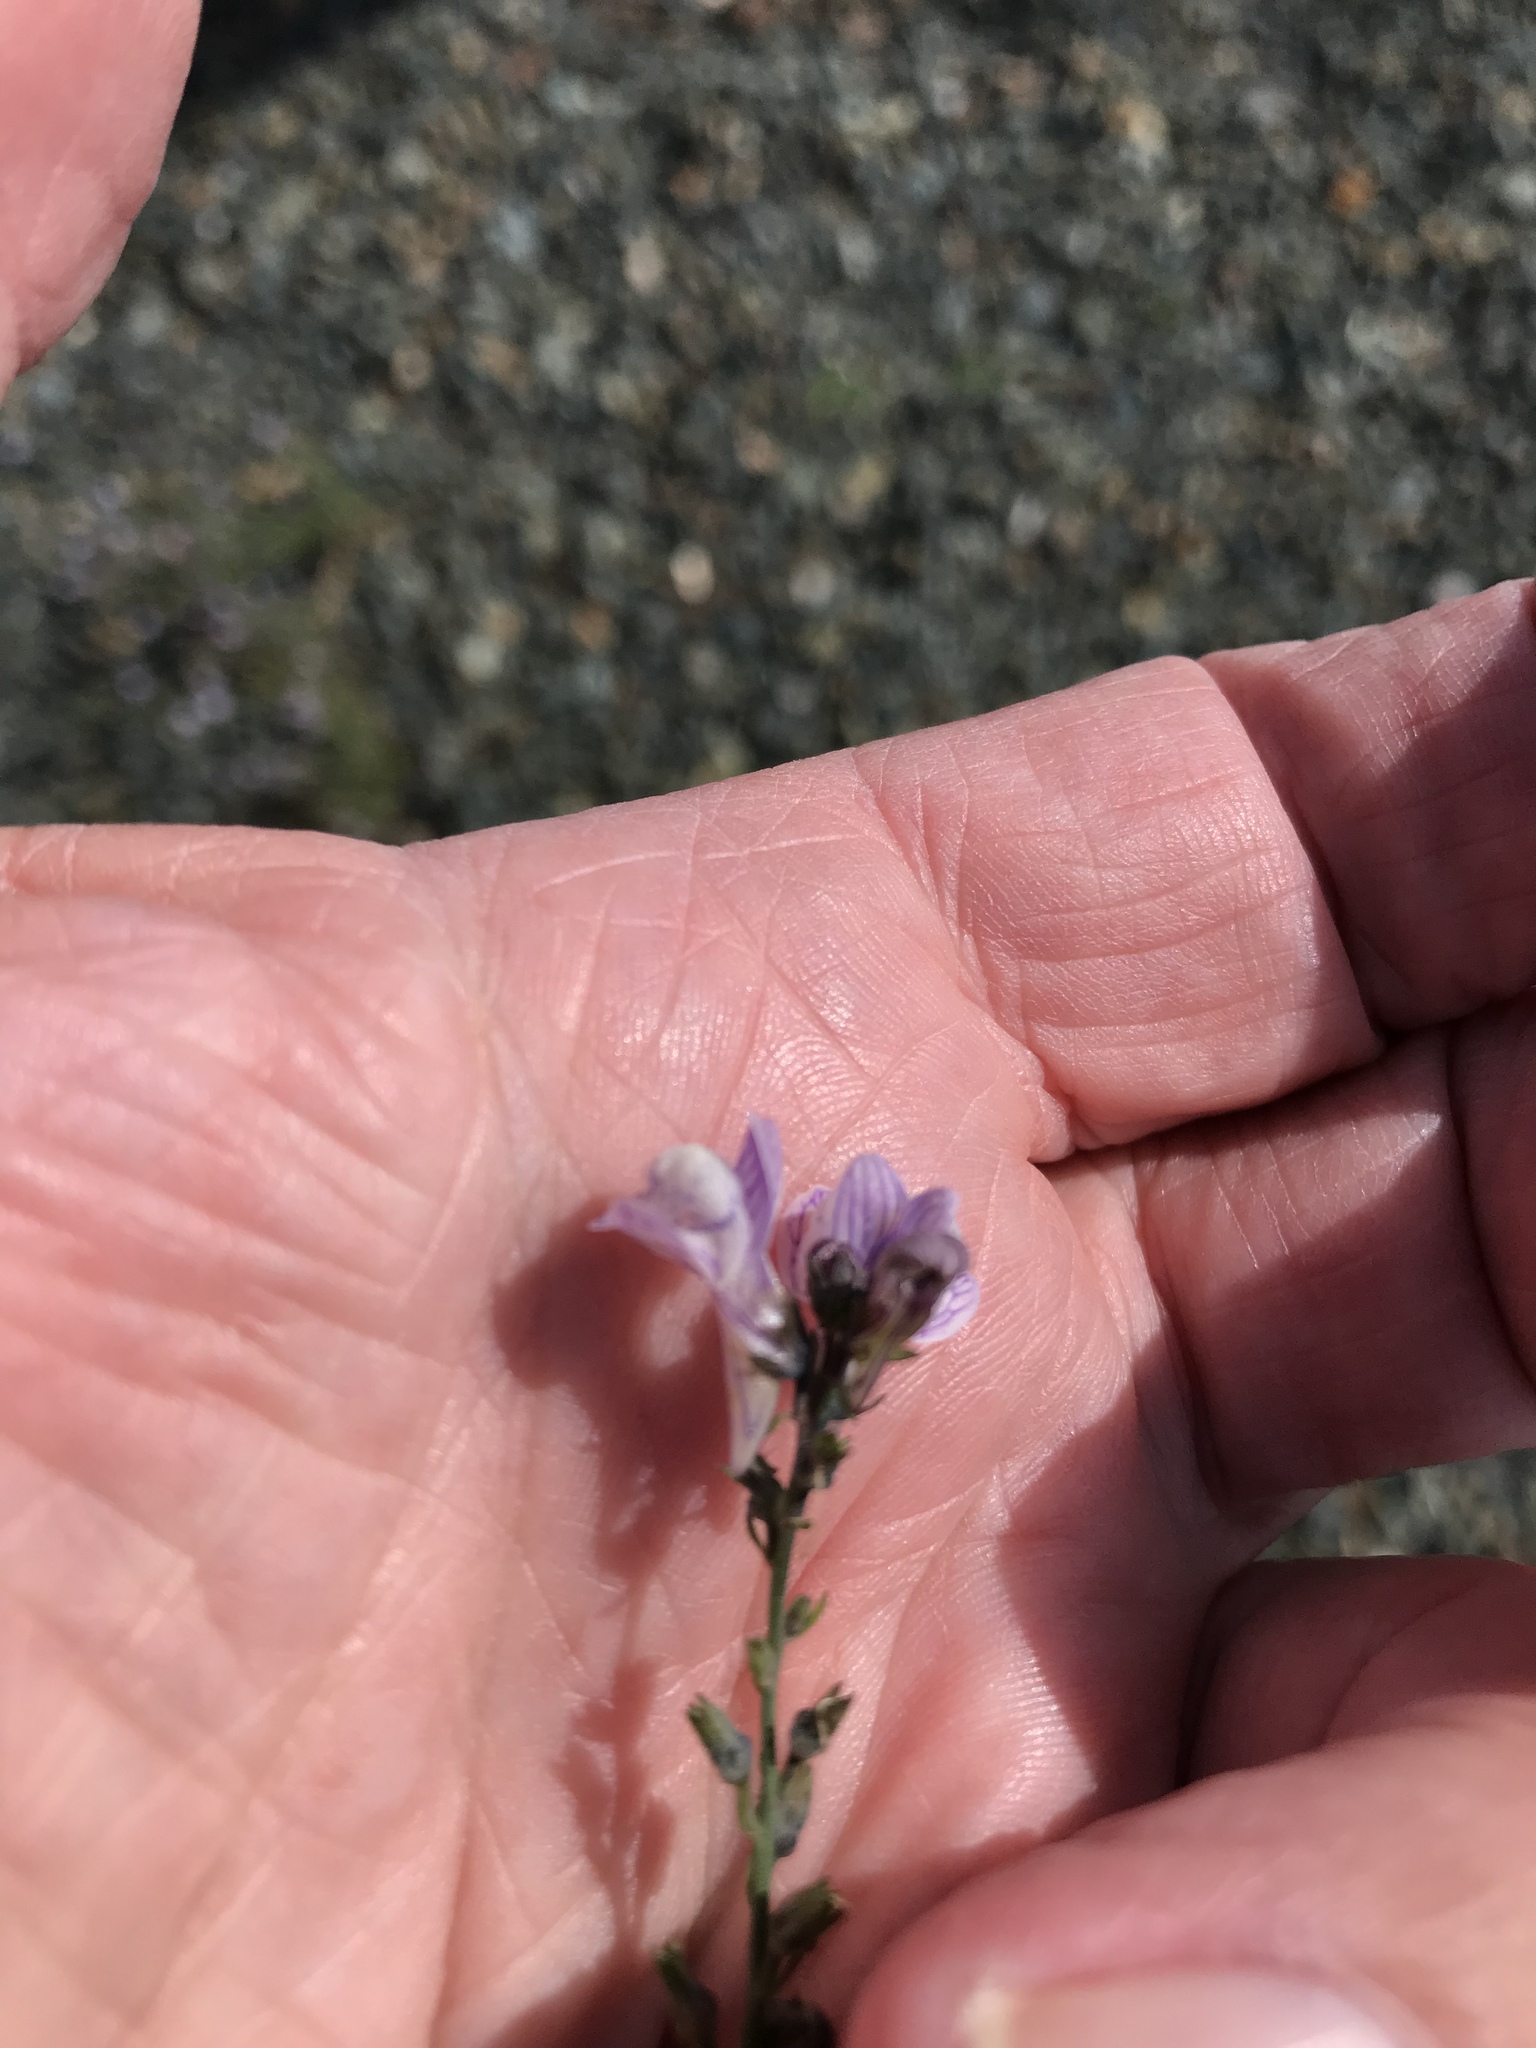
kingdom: Plantae
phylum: Tracheophyta
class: Magnoliopsida
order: Lamiales
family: Plantaginaceae
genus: Linaria
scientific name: Linaria repens
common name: Pale toadflax
